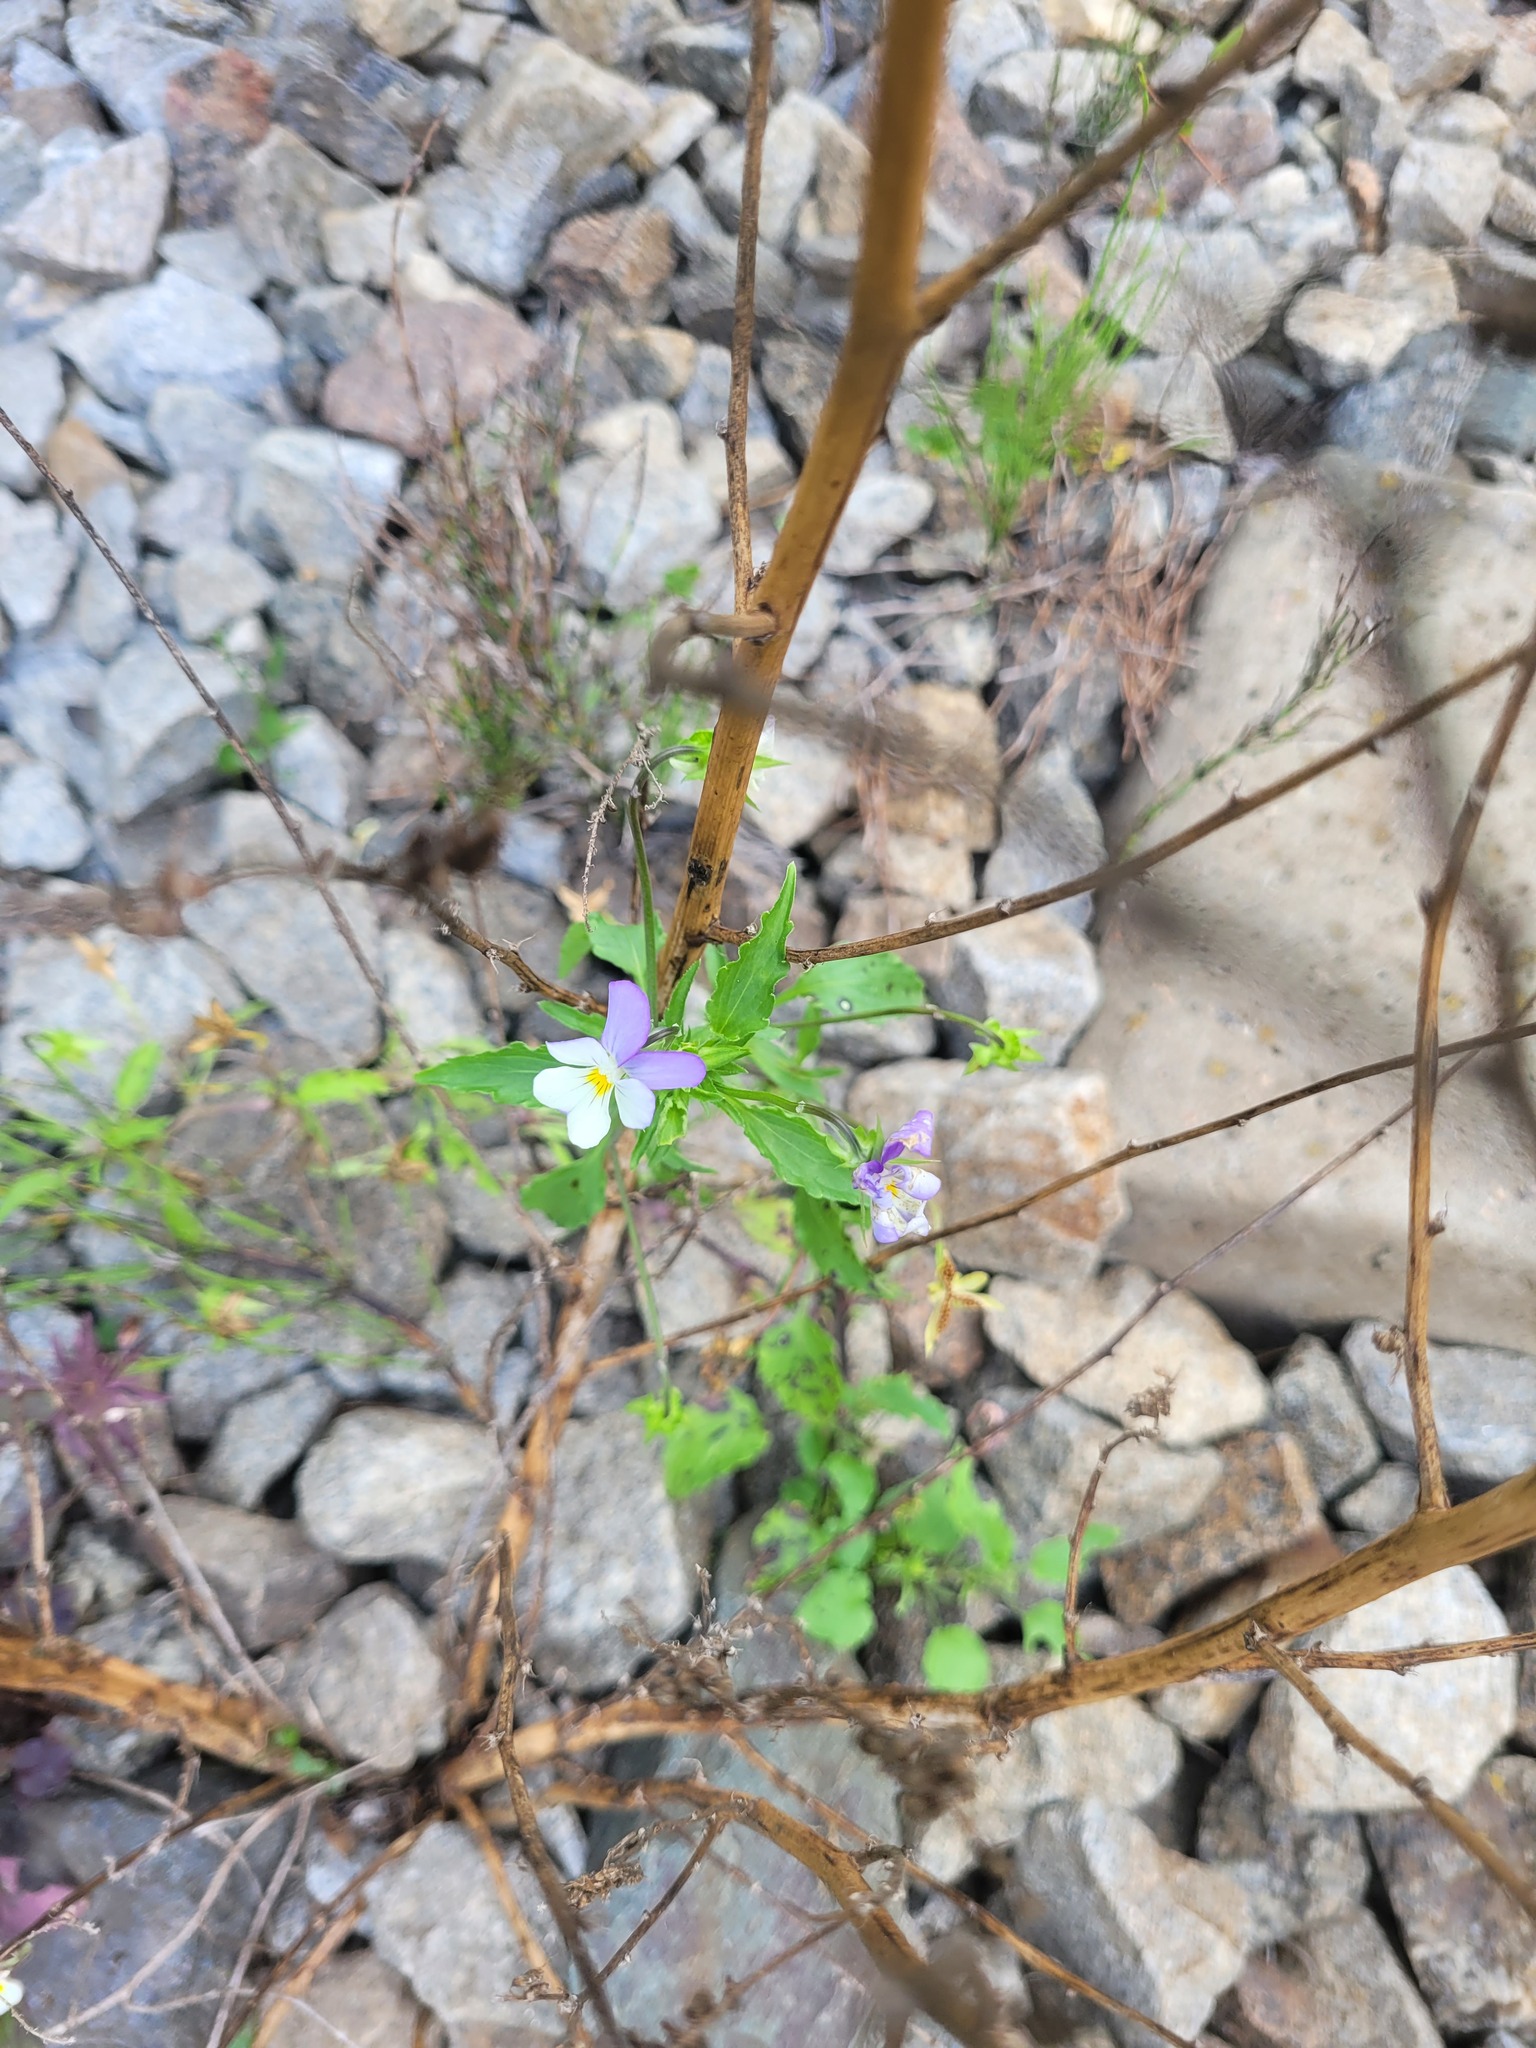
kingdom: Plantae
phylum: Tracheophyta
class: Magnoliopsida
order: Malpighiales
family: Violaceae
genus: Viola
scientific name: Viola tricolor
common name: Pansy
